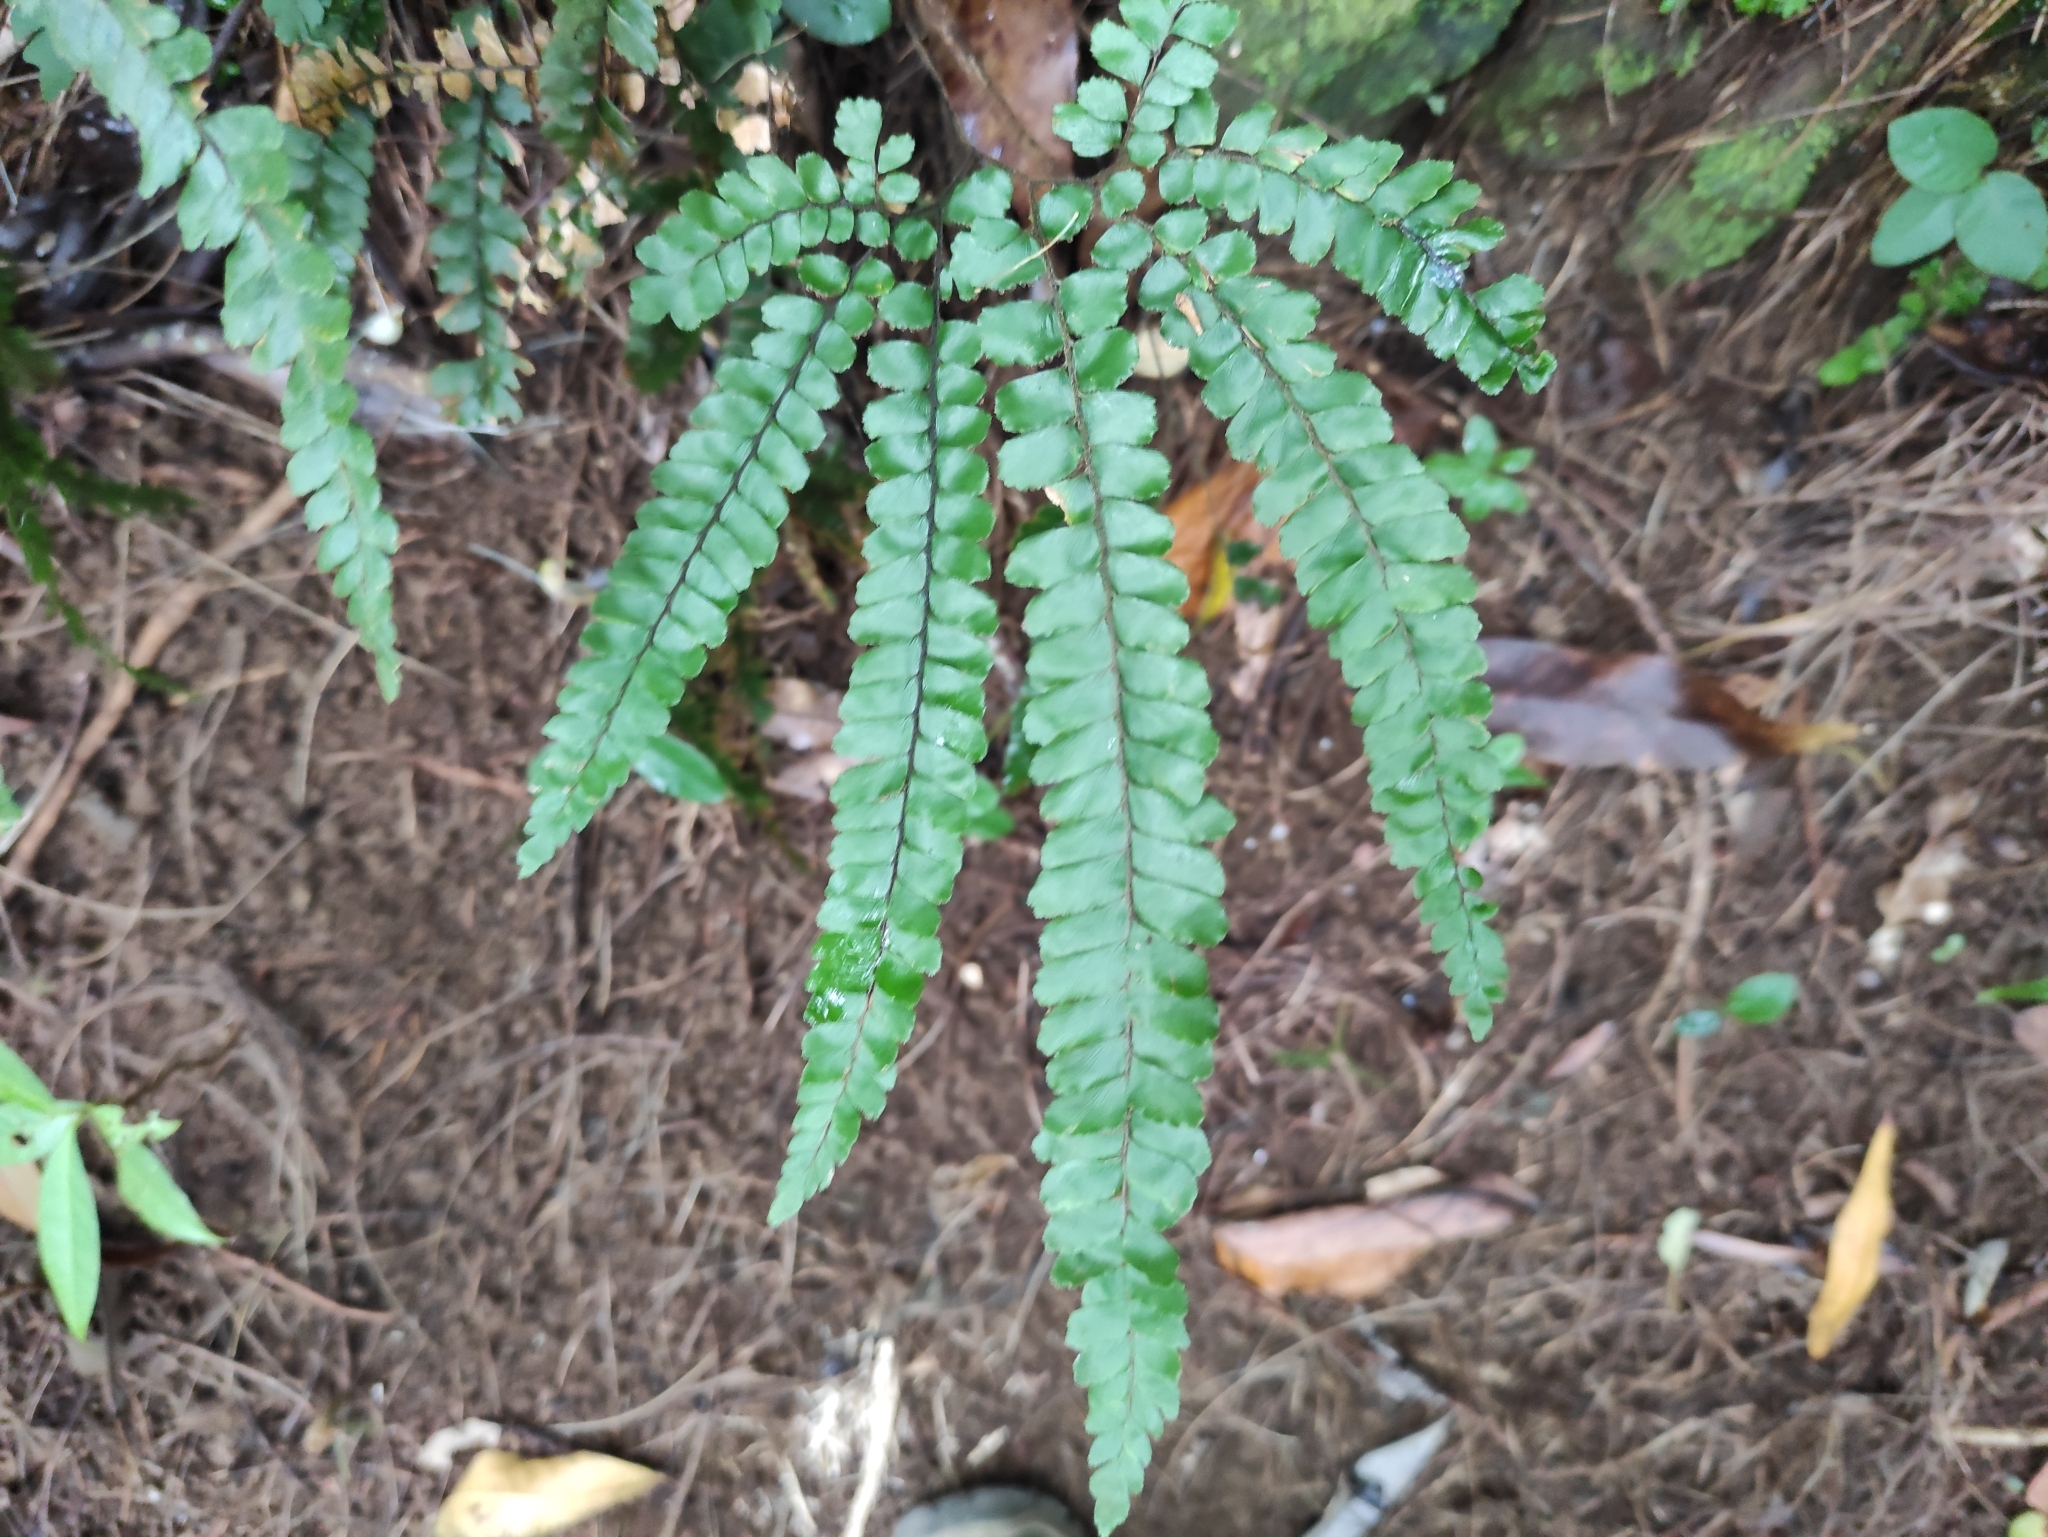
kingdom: Plantae
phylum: Tracheophyta
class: Polypodiopsida
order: Polypodiales
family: Pteridaceae
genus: Adiantum
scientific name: Adiantum hispidulum
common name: Rough maidenhair
